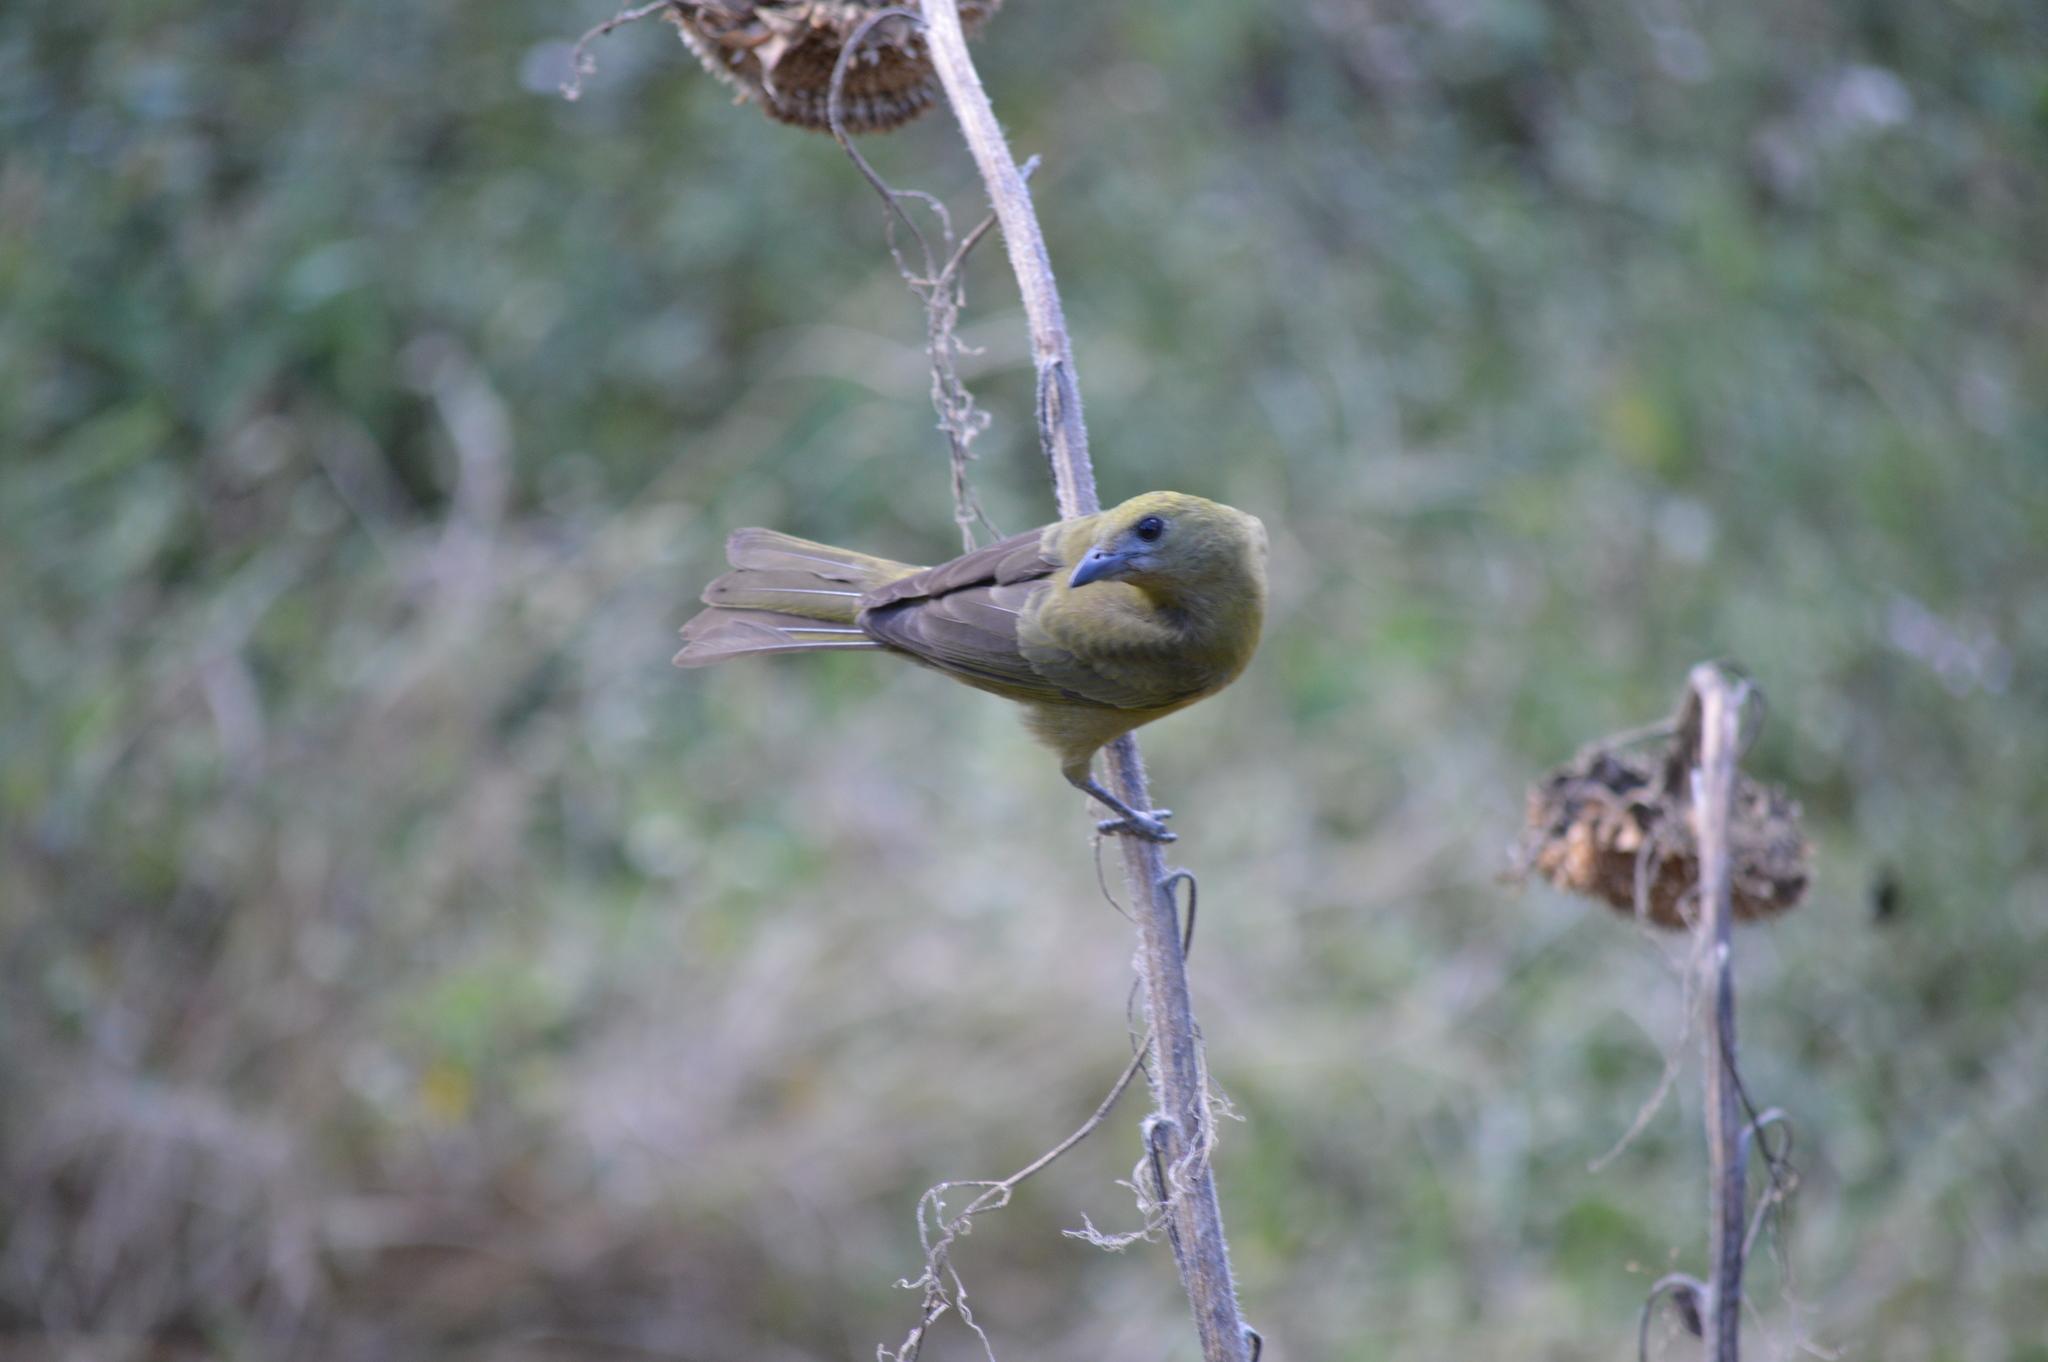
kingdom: Animalia
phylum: Chordata
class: Aves
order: Passeriformes
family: Thraupidae
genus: Thraupis
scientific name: Thraupis palmarum
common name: Palm tanager
